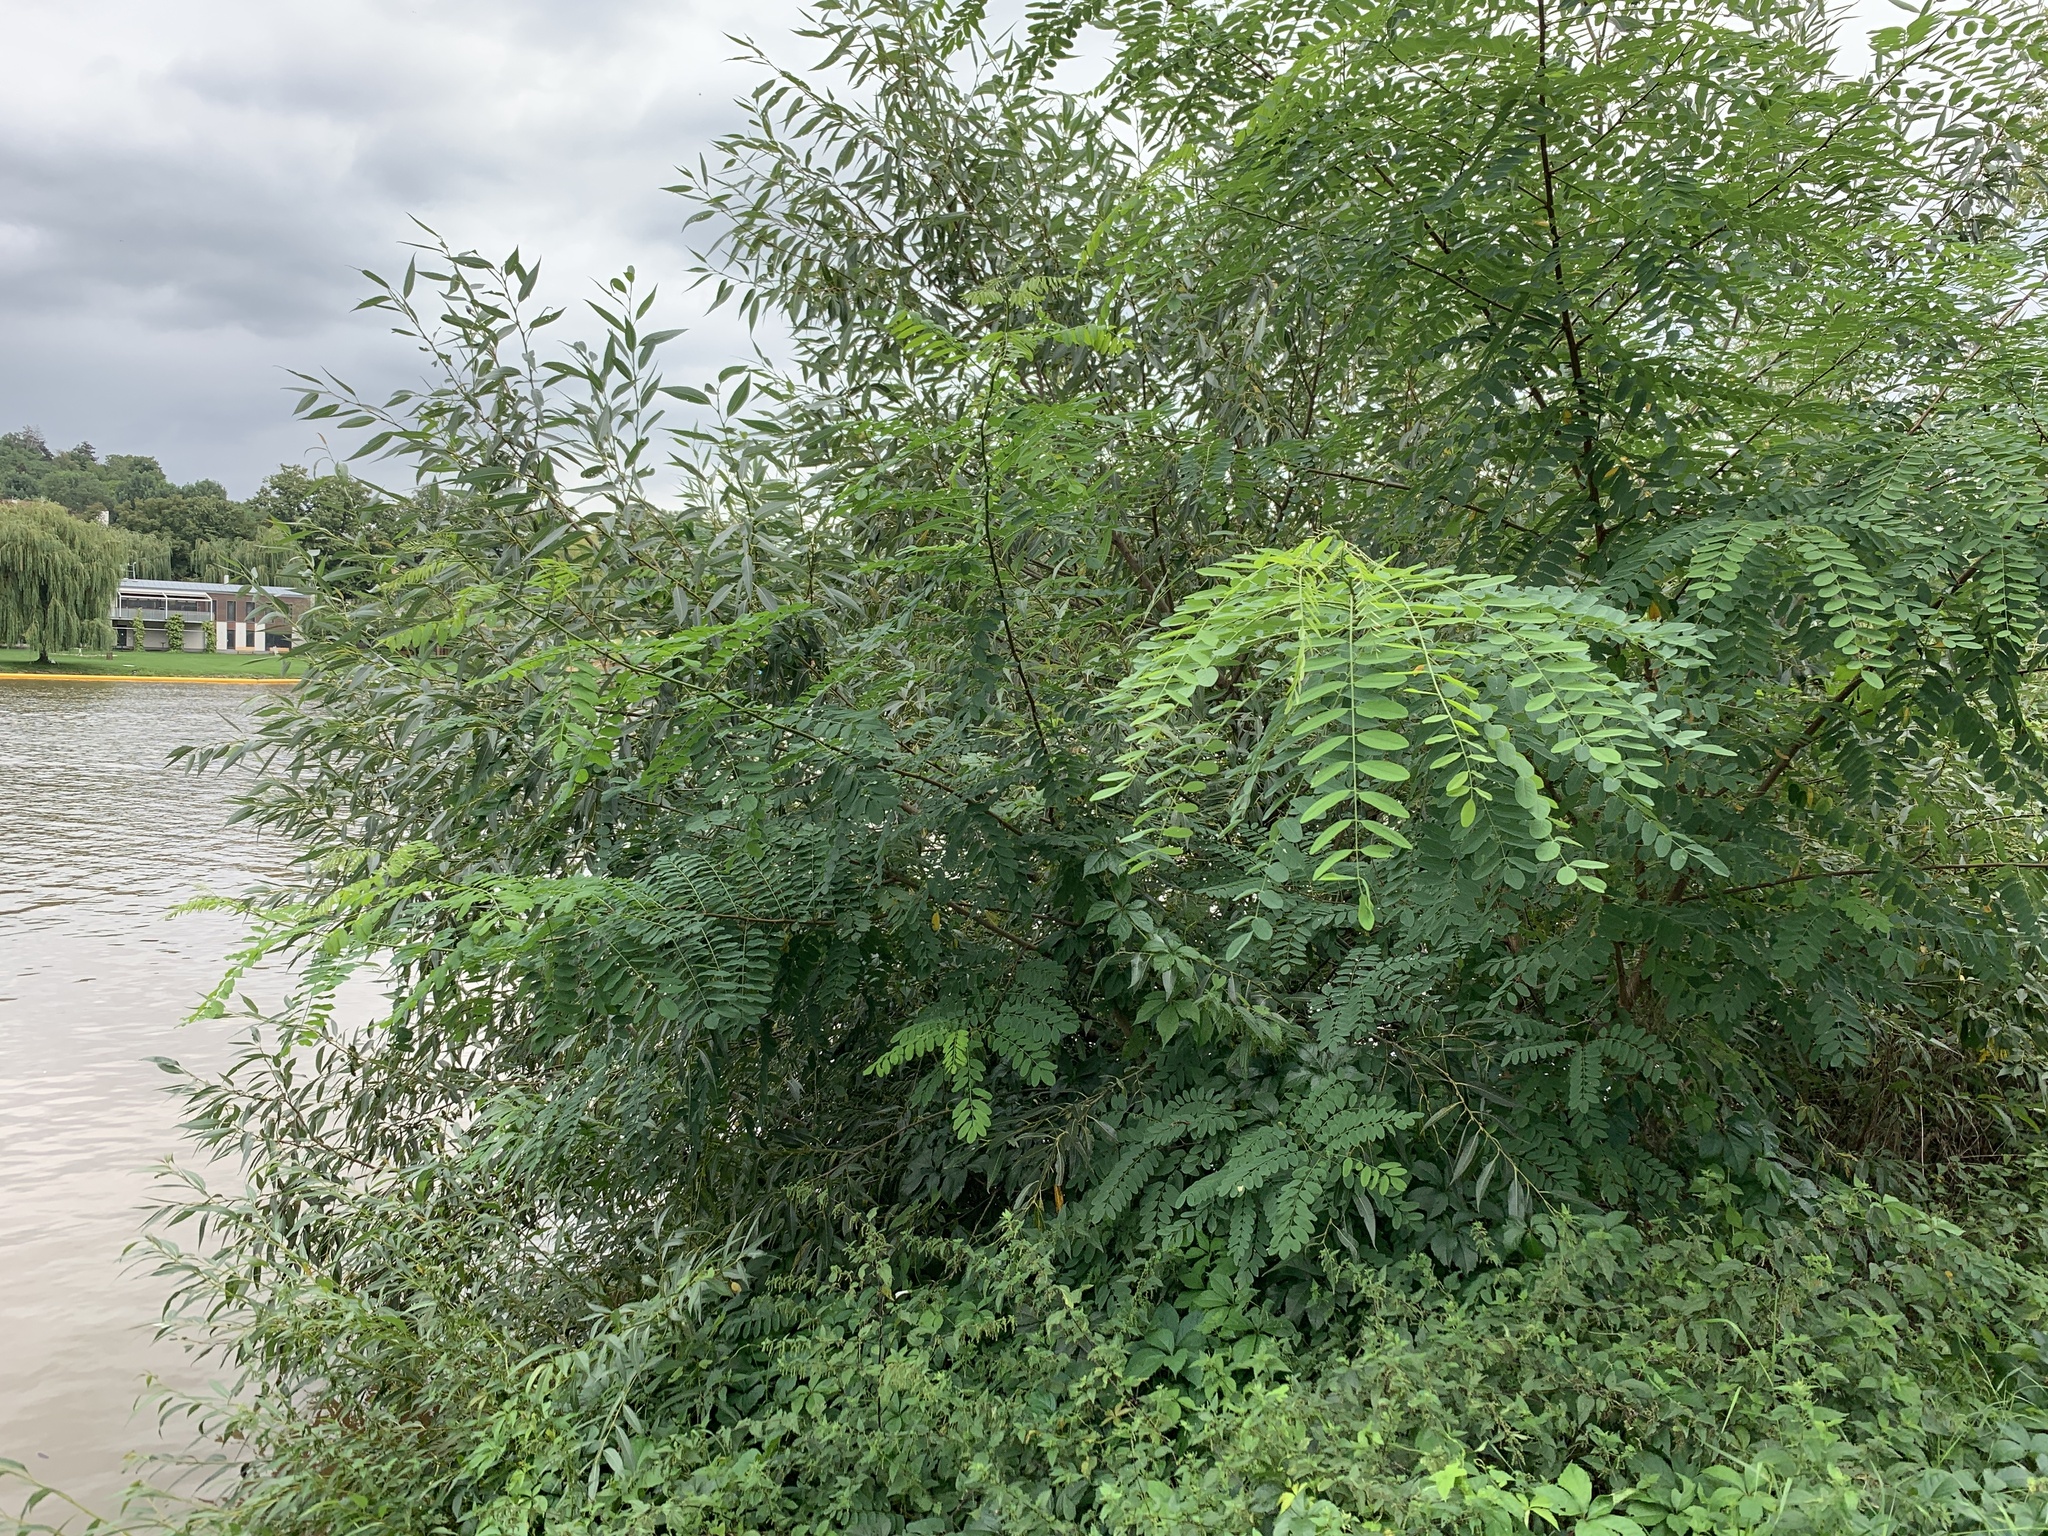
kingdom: Plantae
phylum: Tracheophyta
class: Magnoliopsida
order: Fabales
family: Fabaceae
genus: Robinia
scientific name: Robinia pseudoacacia
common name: Black locust
